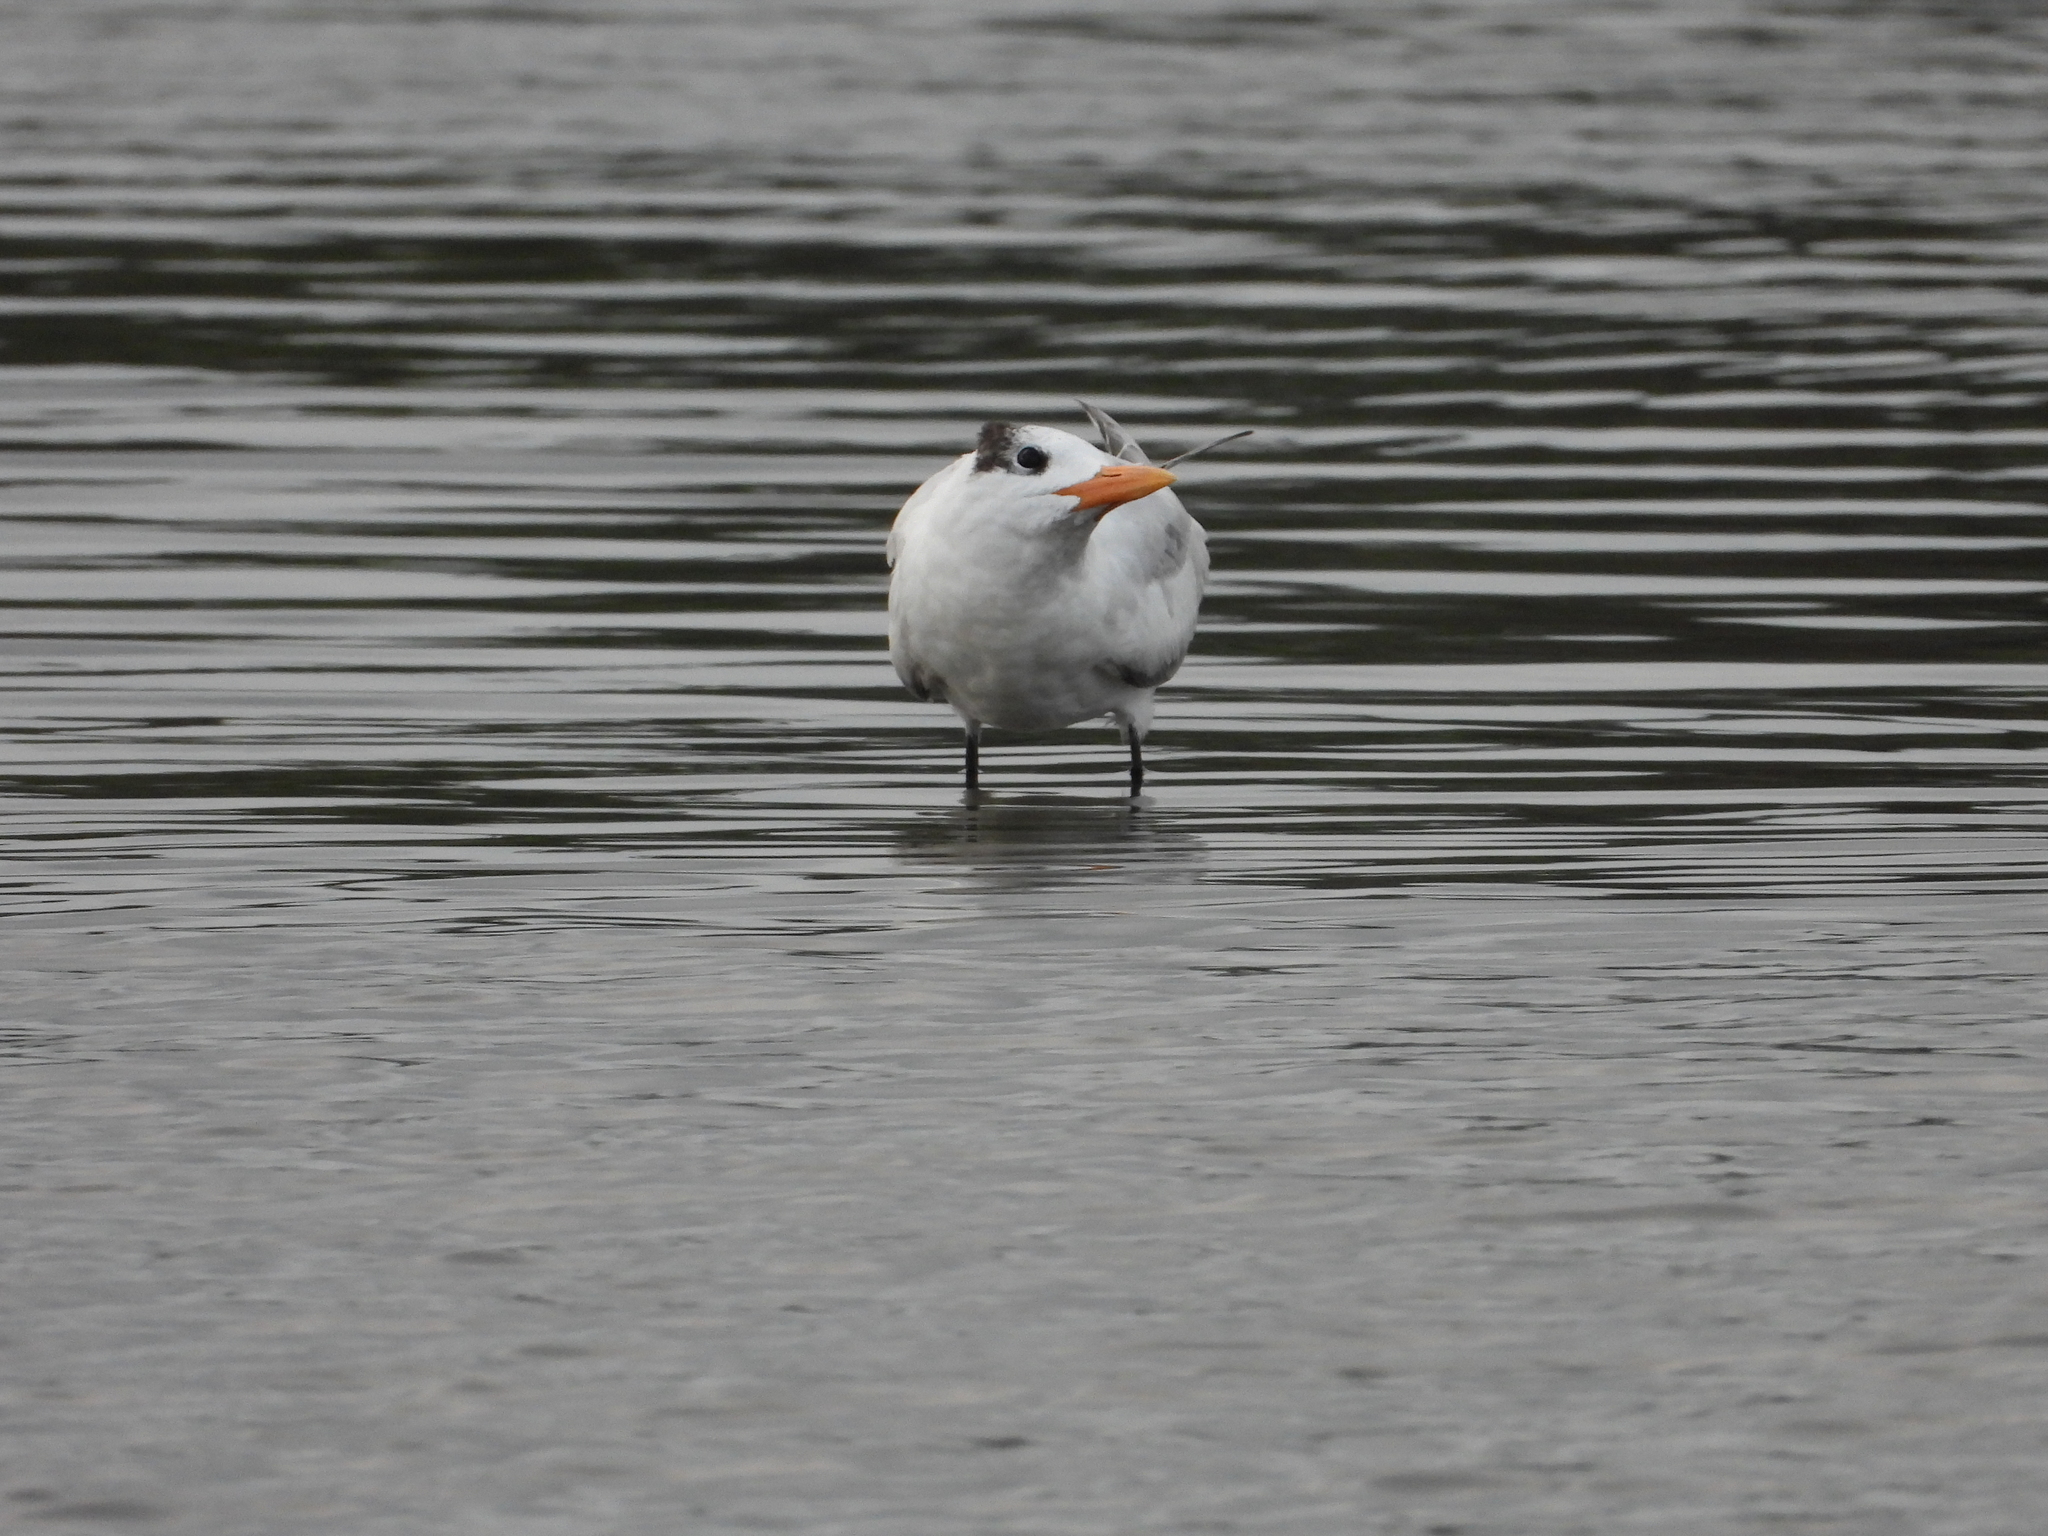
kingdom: Animalia
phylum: Chordata
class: Aves
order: Charadriiformes
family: Laridae
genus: Thalasseus
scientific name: Thalasseus maximus
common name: Royal tern
